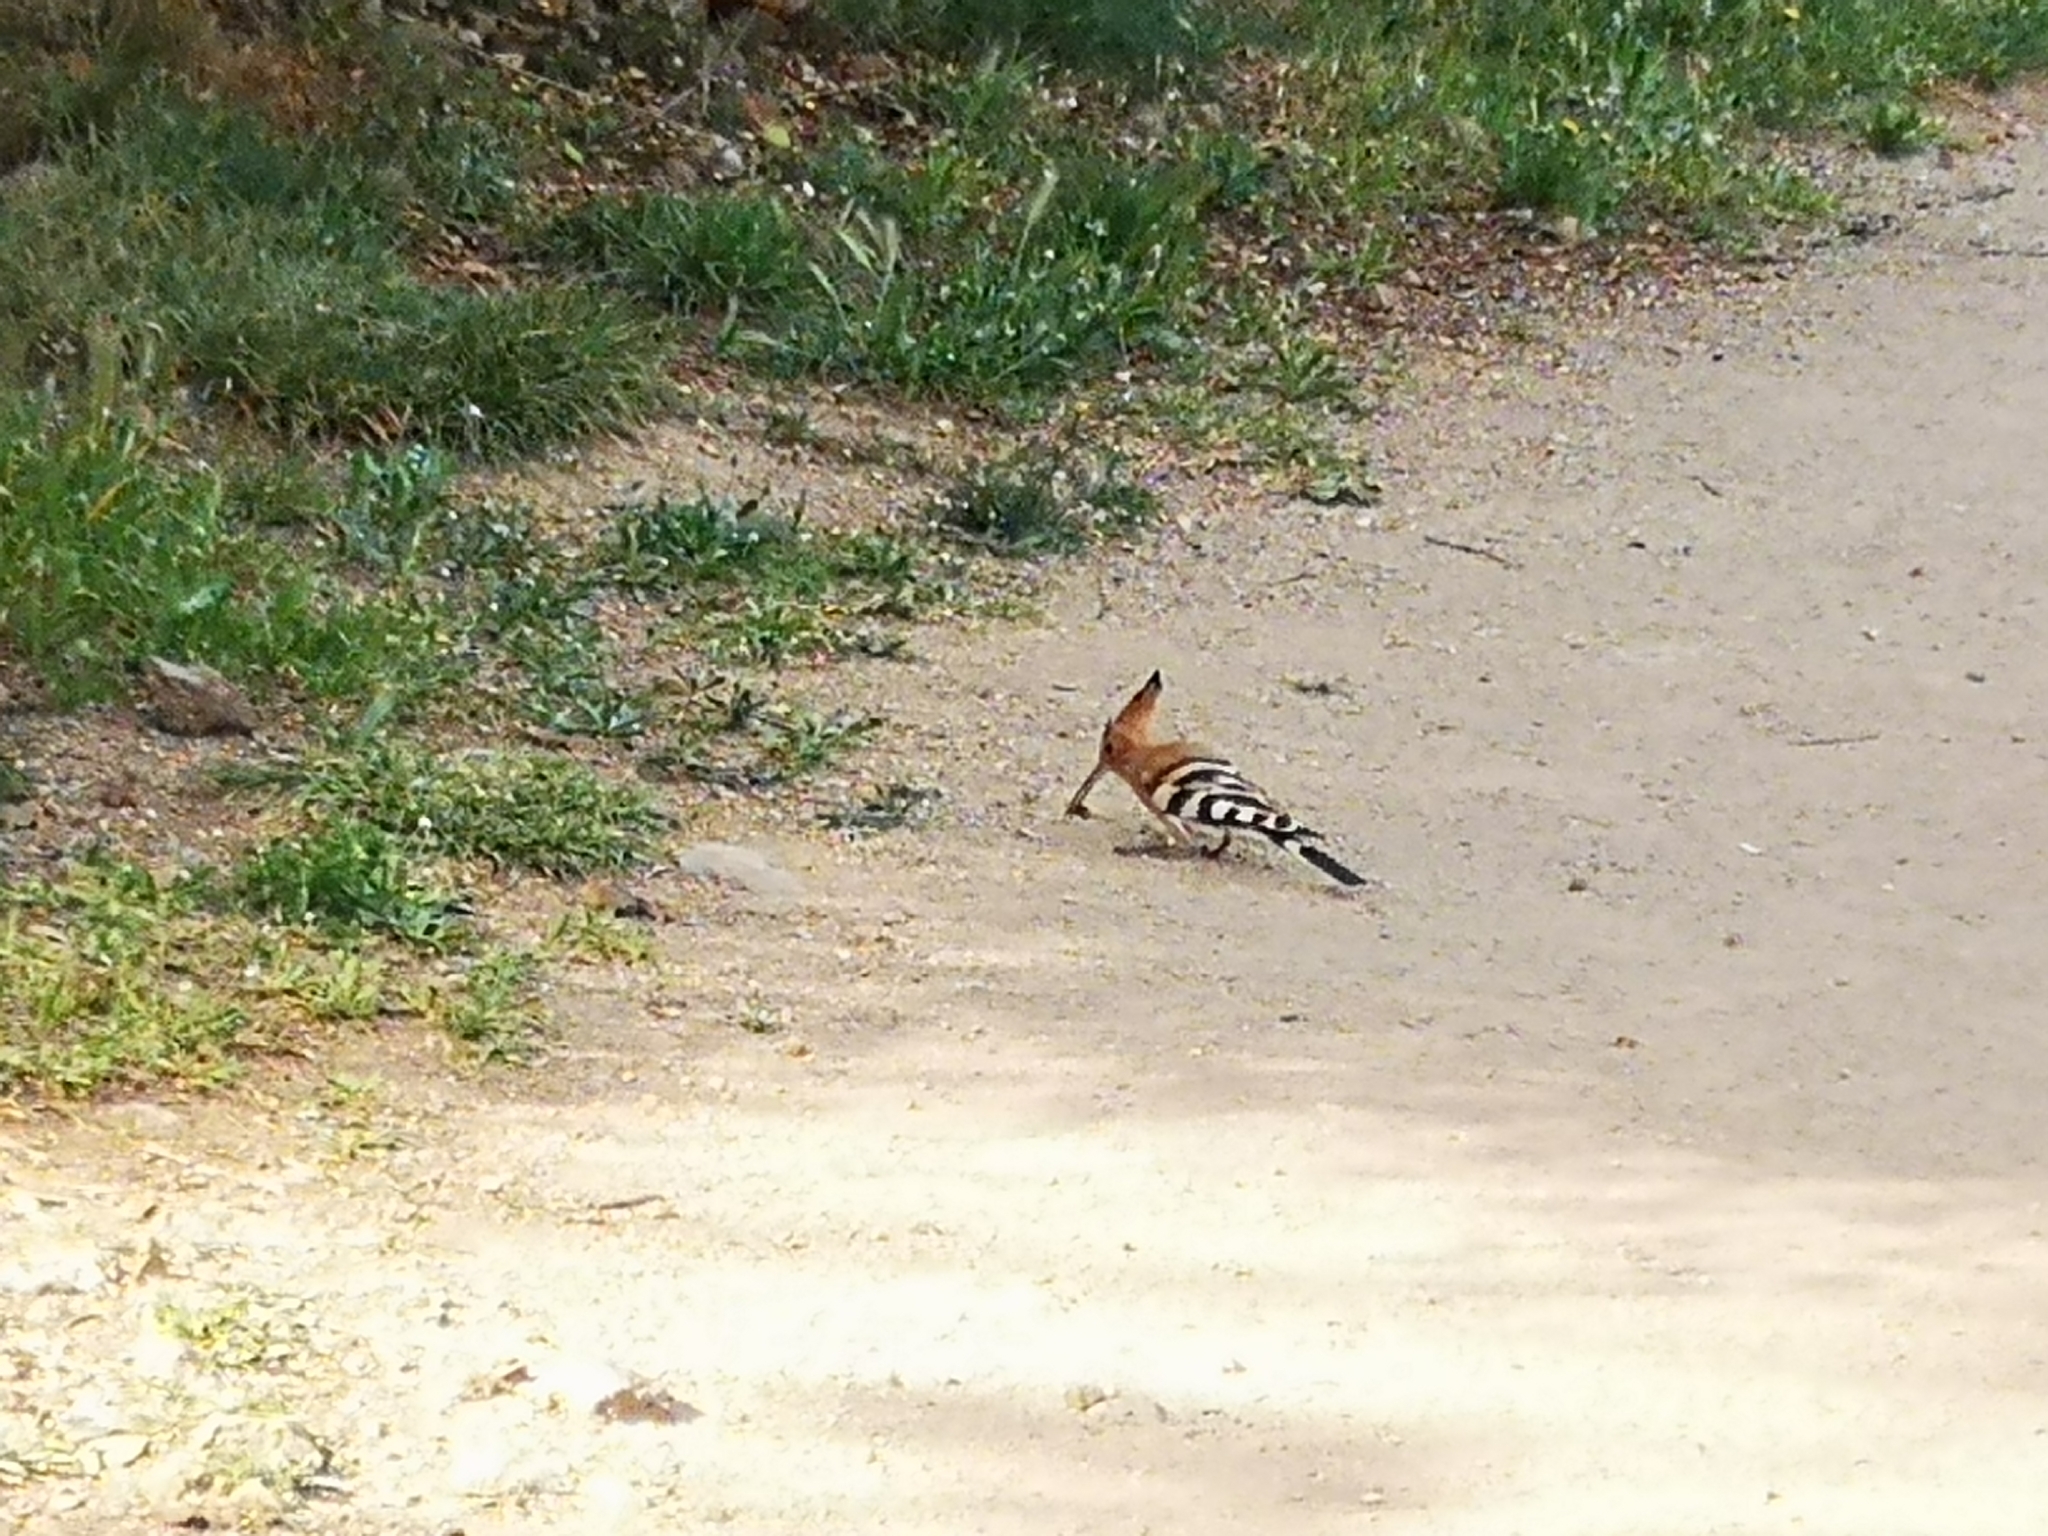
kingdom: Animalia
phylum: Chordata
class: Aves
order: Bucerotiformes
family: Upupidae
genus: Upupa
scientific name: Upupa epops
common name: Eurasian hoopoe
